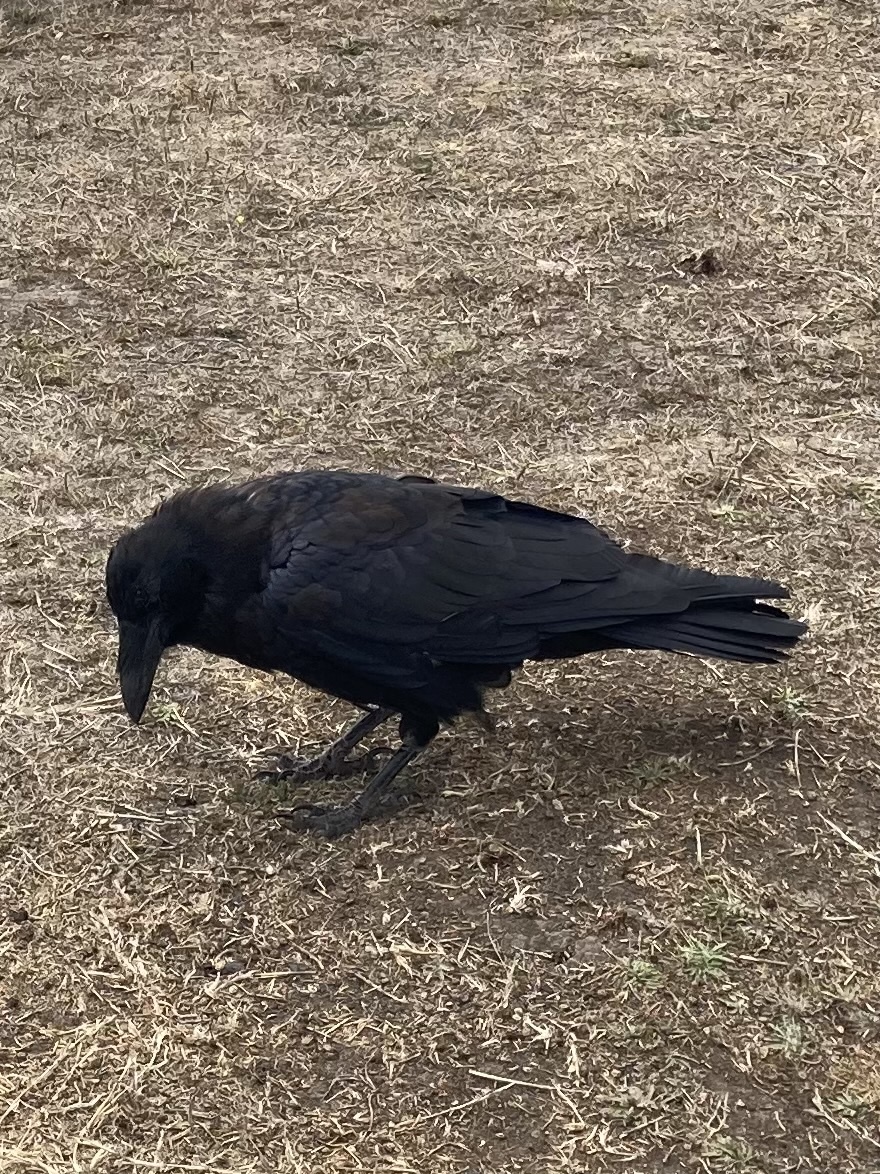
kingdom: Animalia
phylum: Chordata
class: Aves
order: Passeriformes
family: Corvidae
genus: Corvus
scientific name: Corvus corax
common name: Common raven
